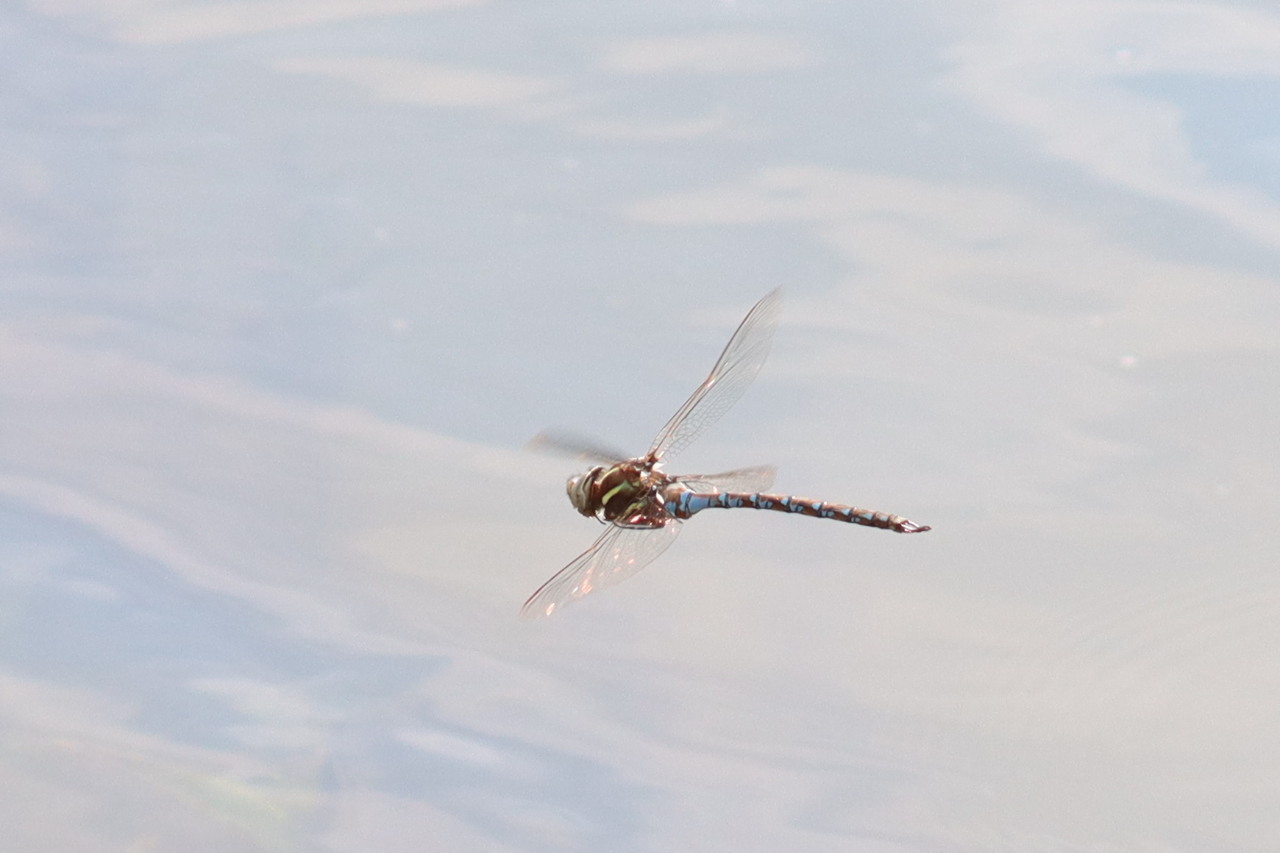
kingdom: Animalia
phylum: Arthropoda
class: Insecta
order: Odonata
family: Aeshnidae
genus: Basiaeschna
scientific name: Basiaeschna janata
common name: Springtime darner
